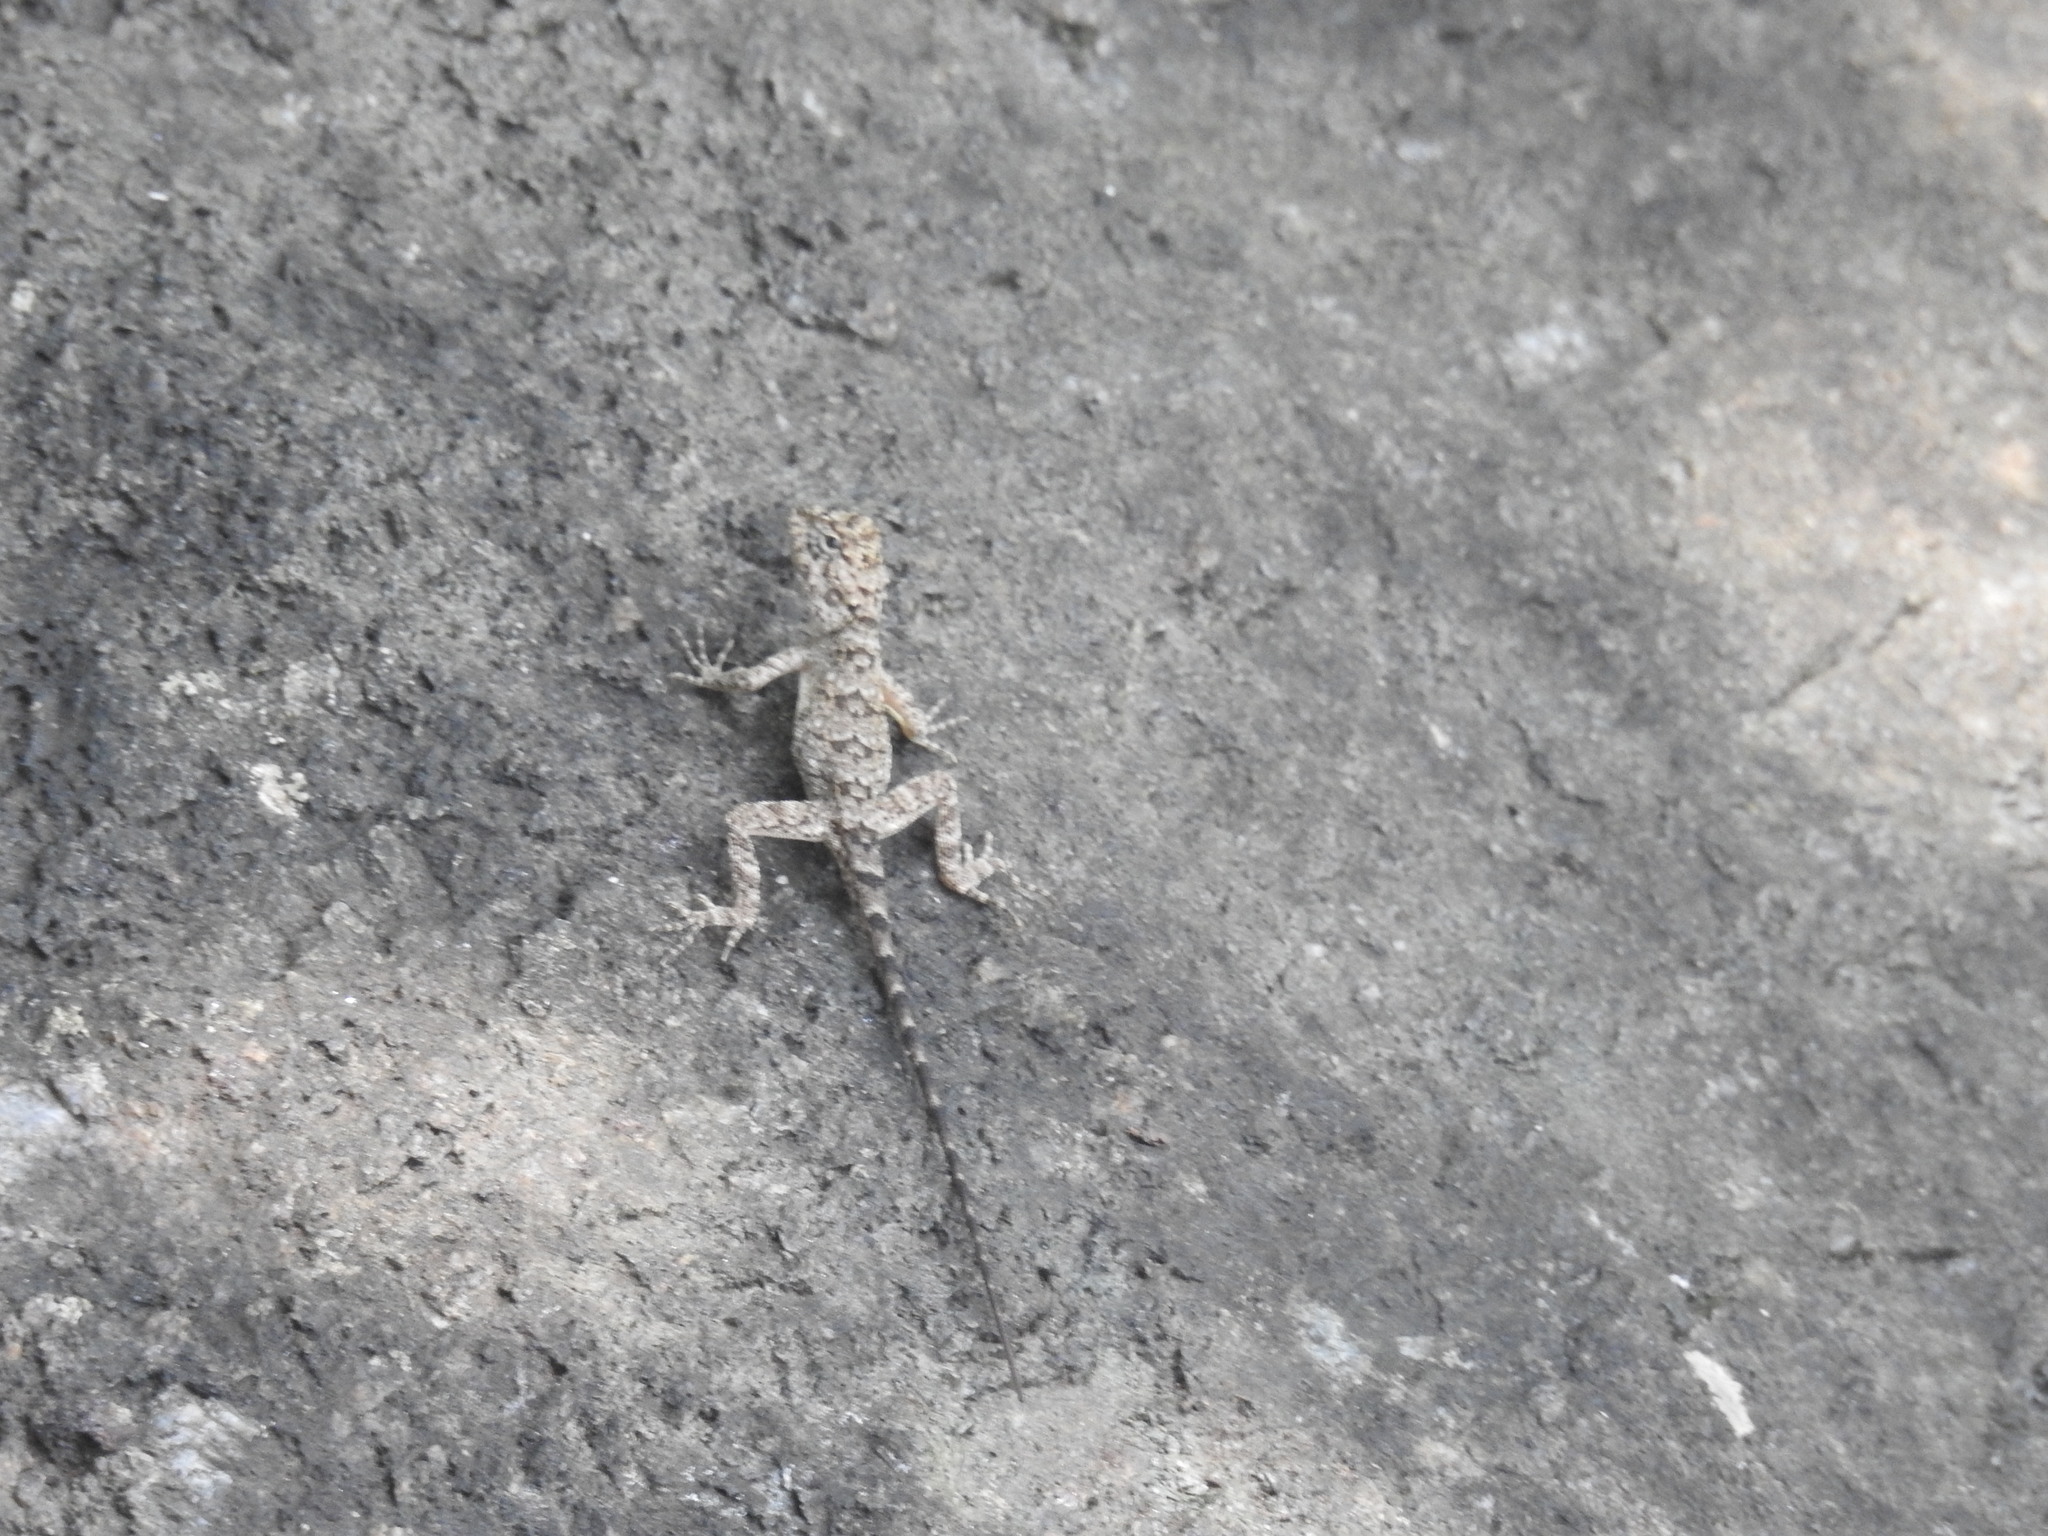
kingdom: Animalia
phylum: Chordata
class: Squamata
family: Agamidae
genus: Psammophilus
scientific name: Psammophilus dorsalis
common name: South indian rock agama
